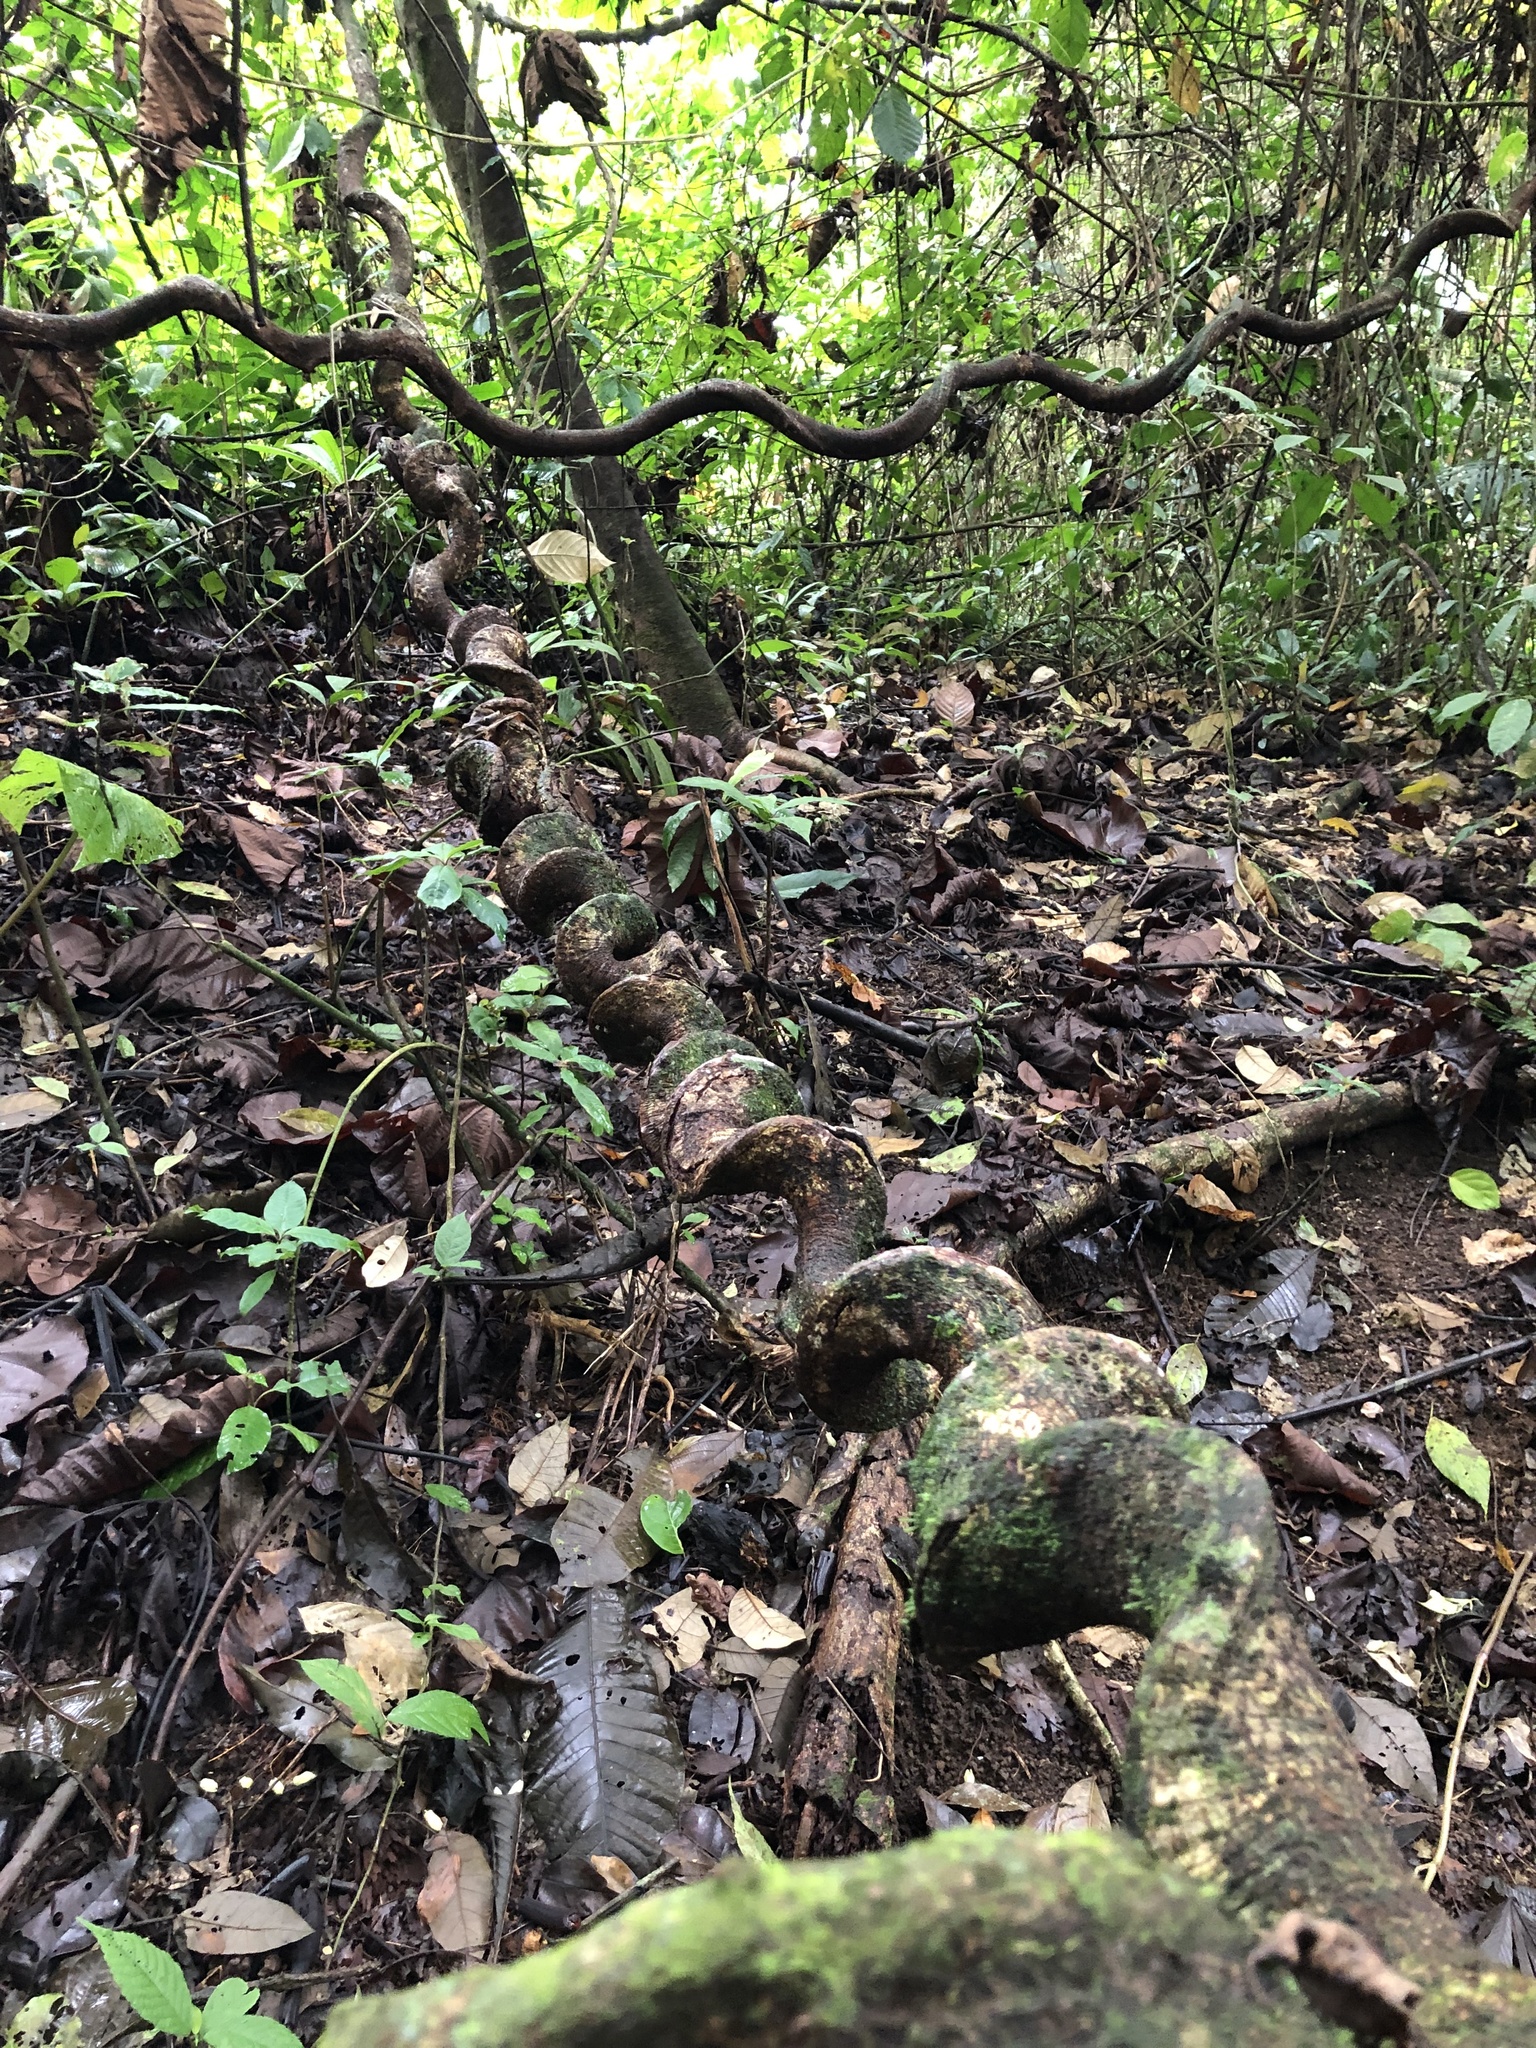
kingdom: Plantae
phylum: Tracheophyta
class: Magnoliopsida
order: Fabales
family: Fabaceae
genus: Entada
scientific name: Entada gigas
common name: Nicker-bean
